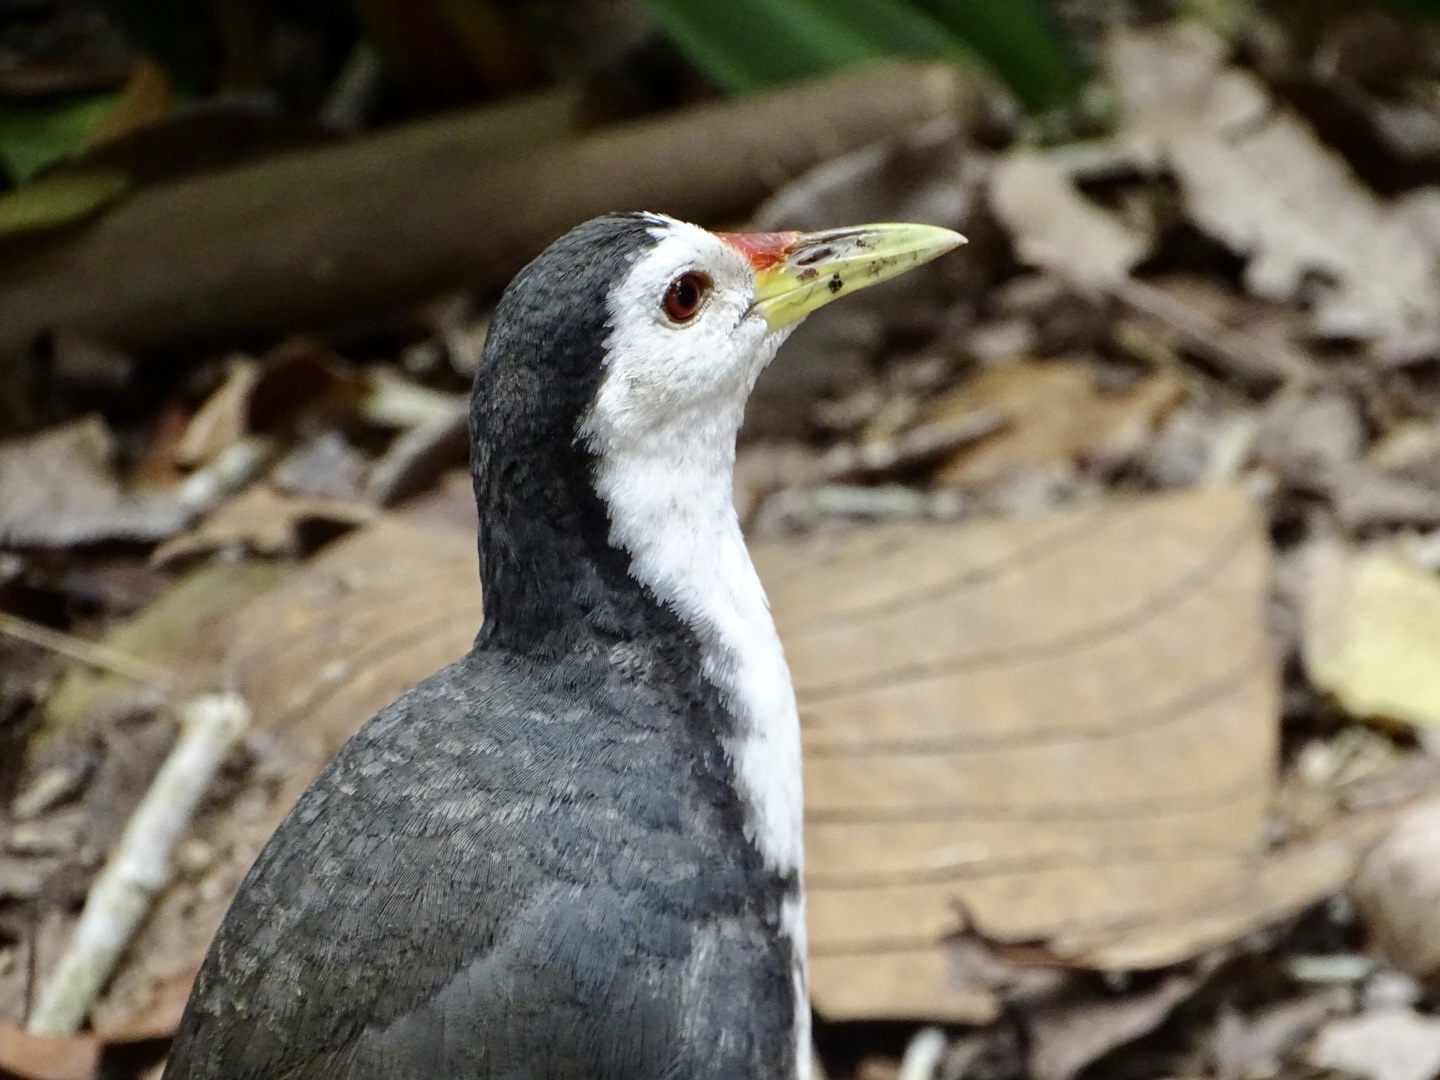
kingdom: Animalia
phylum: Chordata
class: Aves
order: Gruiformes
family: Rallidae
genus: Amaurornis
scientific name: Amaurornis phoenicurus
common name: White-breasted waterhen
